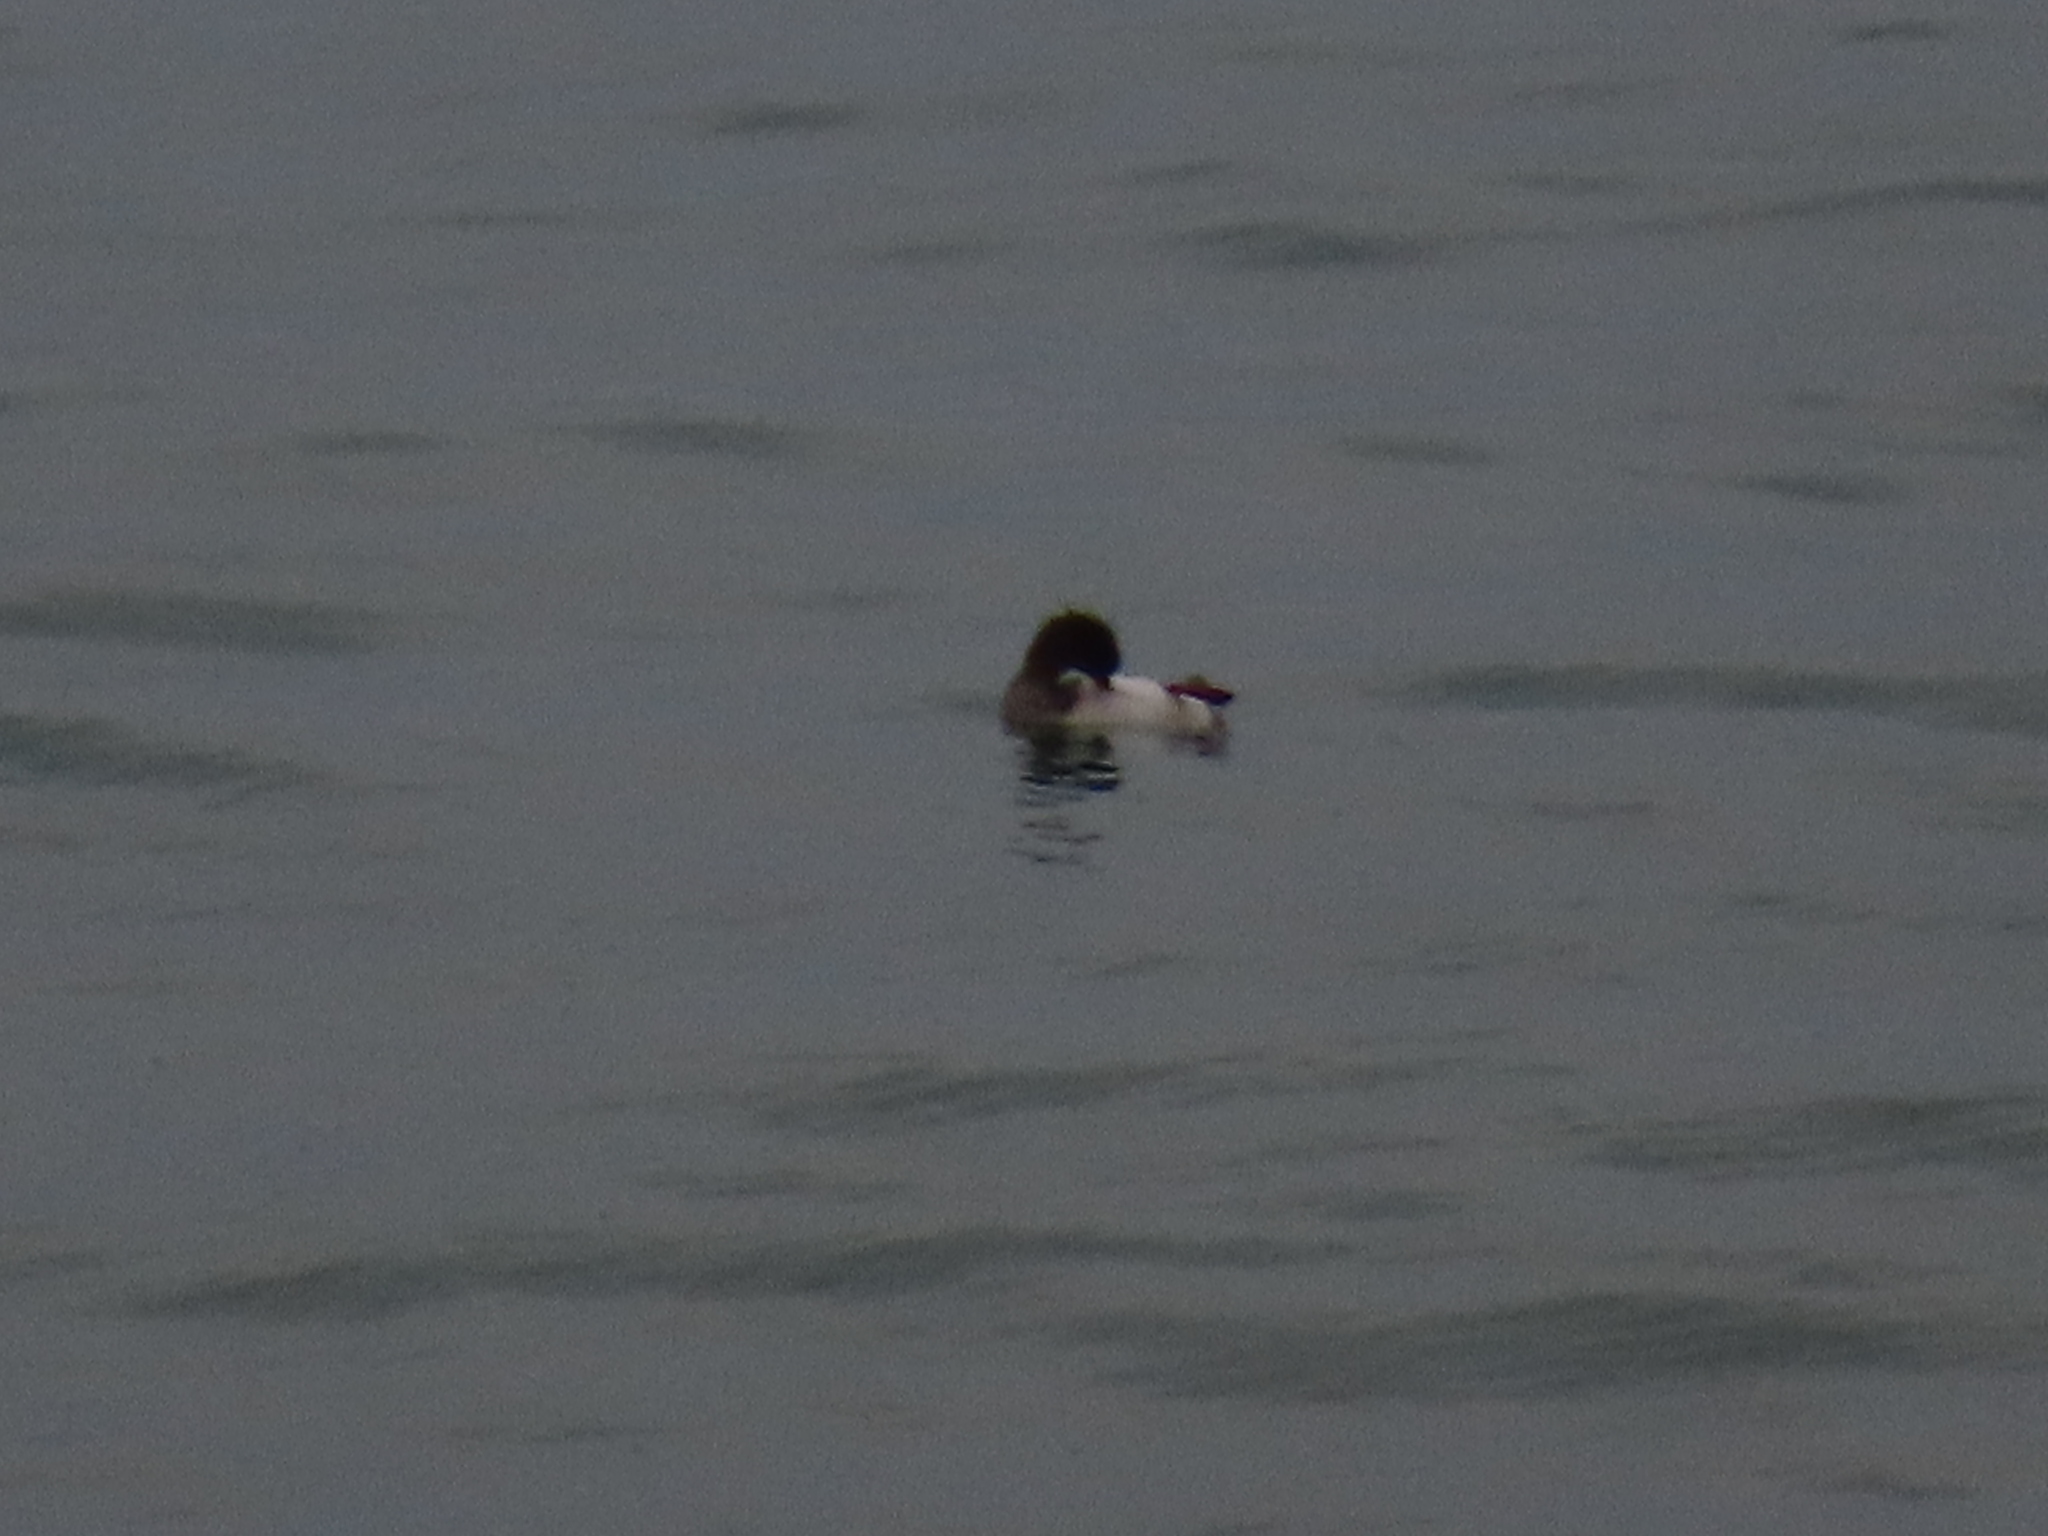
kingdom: Animalia
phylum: Chordata
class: Aves
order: Anseriformes
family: Anatidae
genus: Mergus
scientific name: Mergus serrator
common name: Red-breasted merganser
